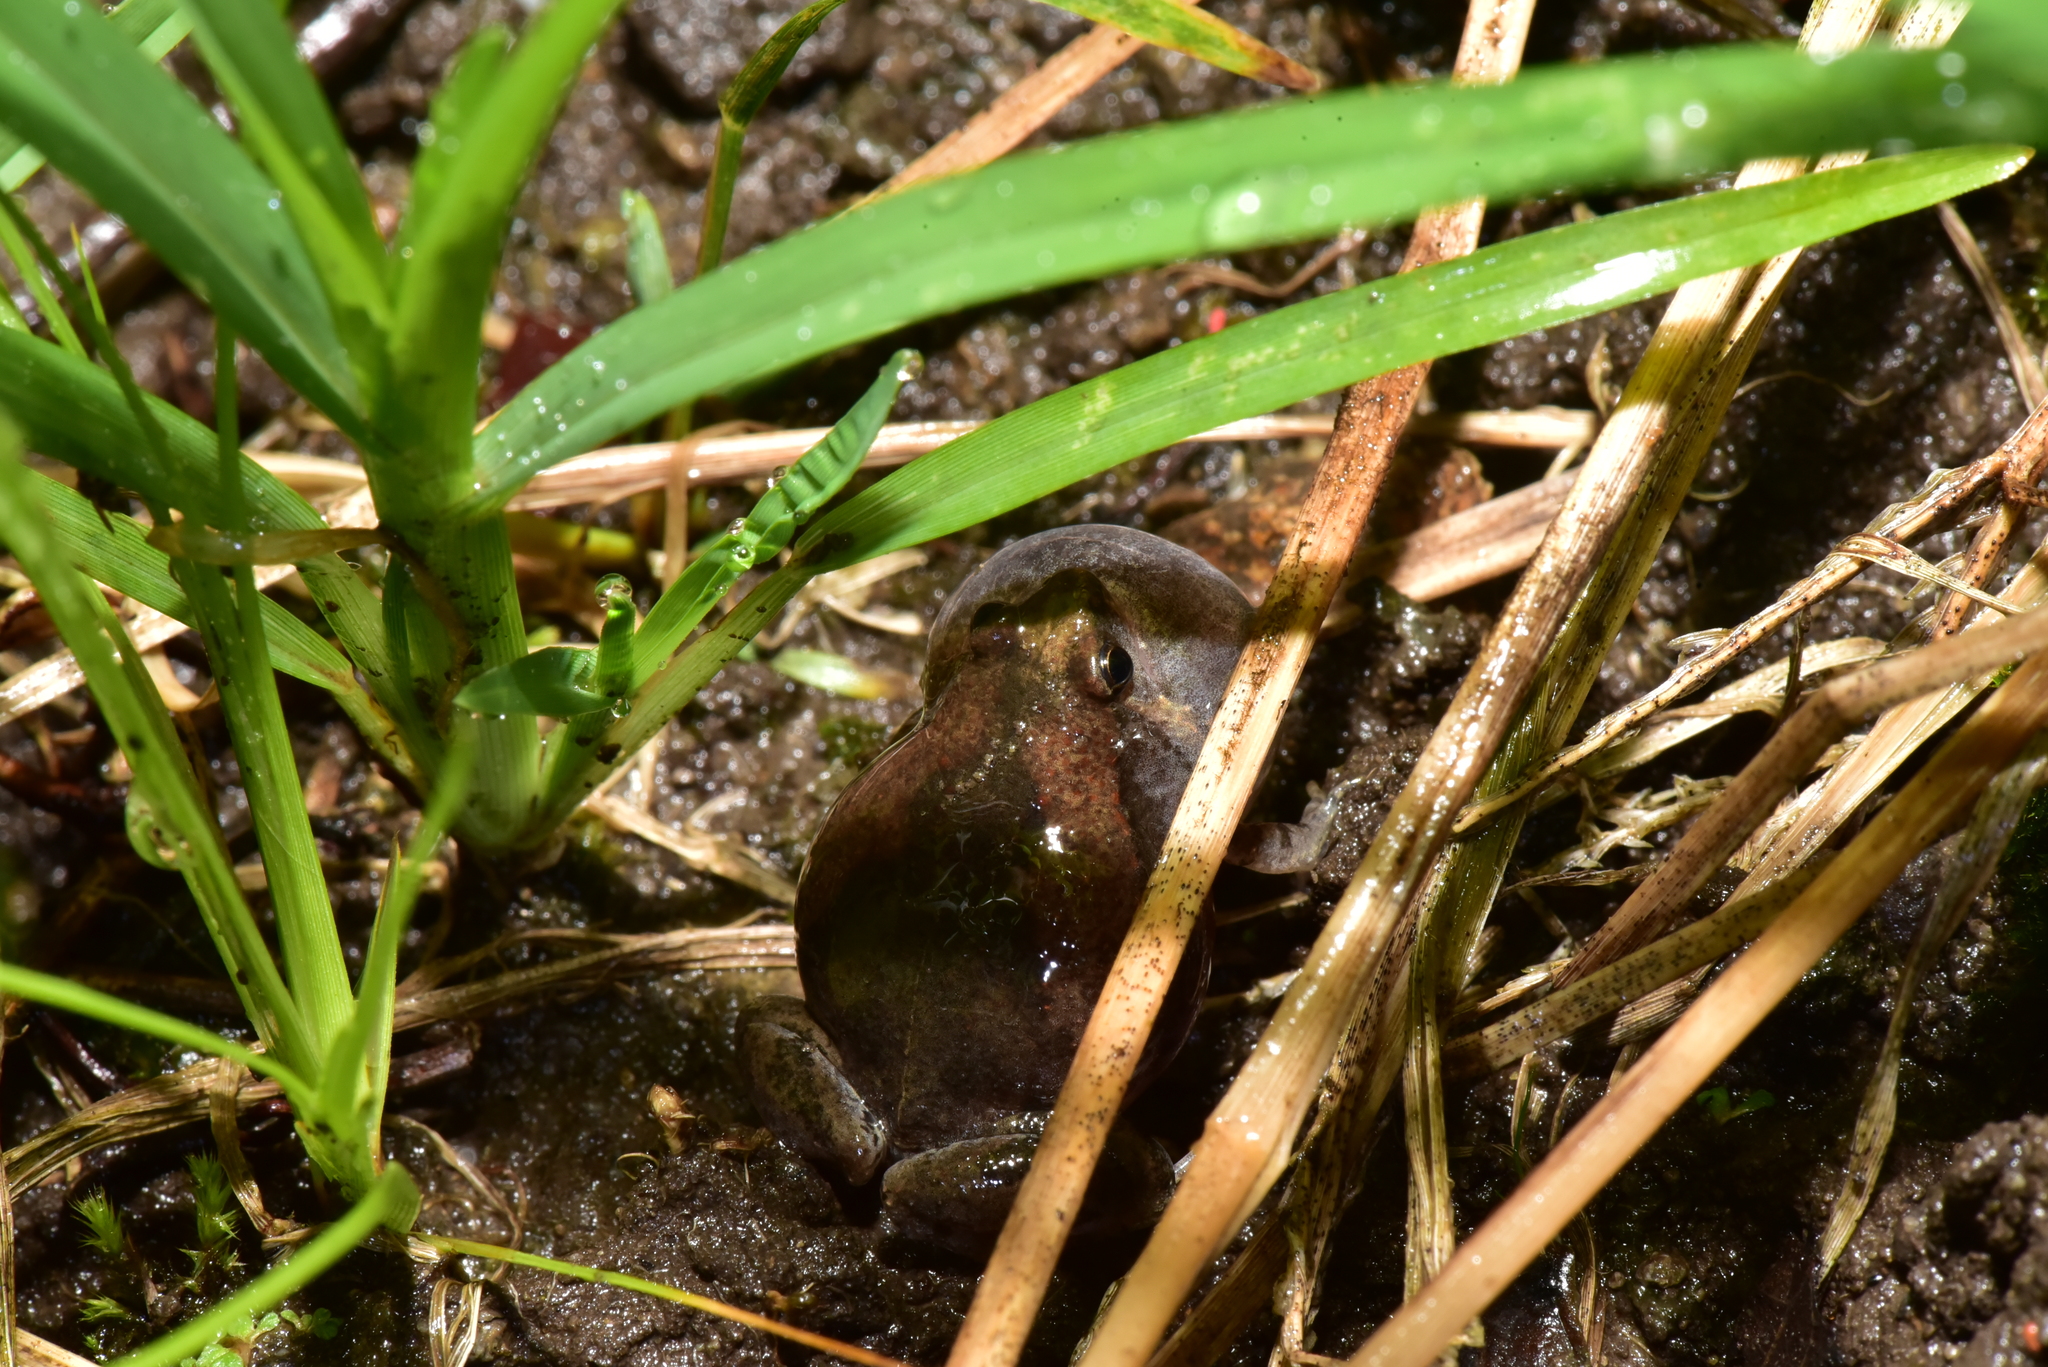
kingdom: Animalia
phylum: Chordata
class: Amphibia
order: Anura
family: Microhylidae
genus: Microhyla
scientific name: Microhyla fissipes
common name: Ornate narrow-mouthed frog
